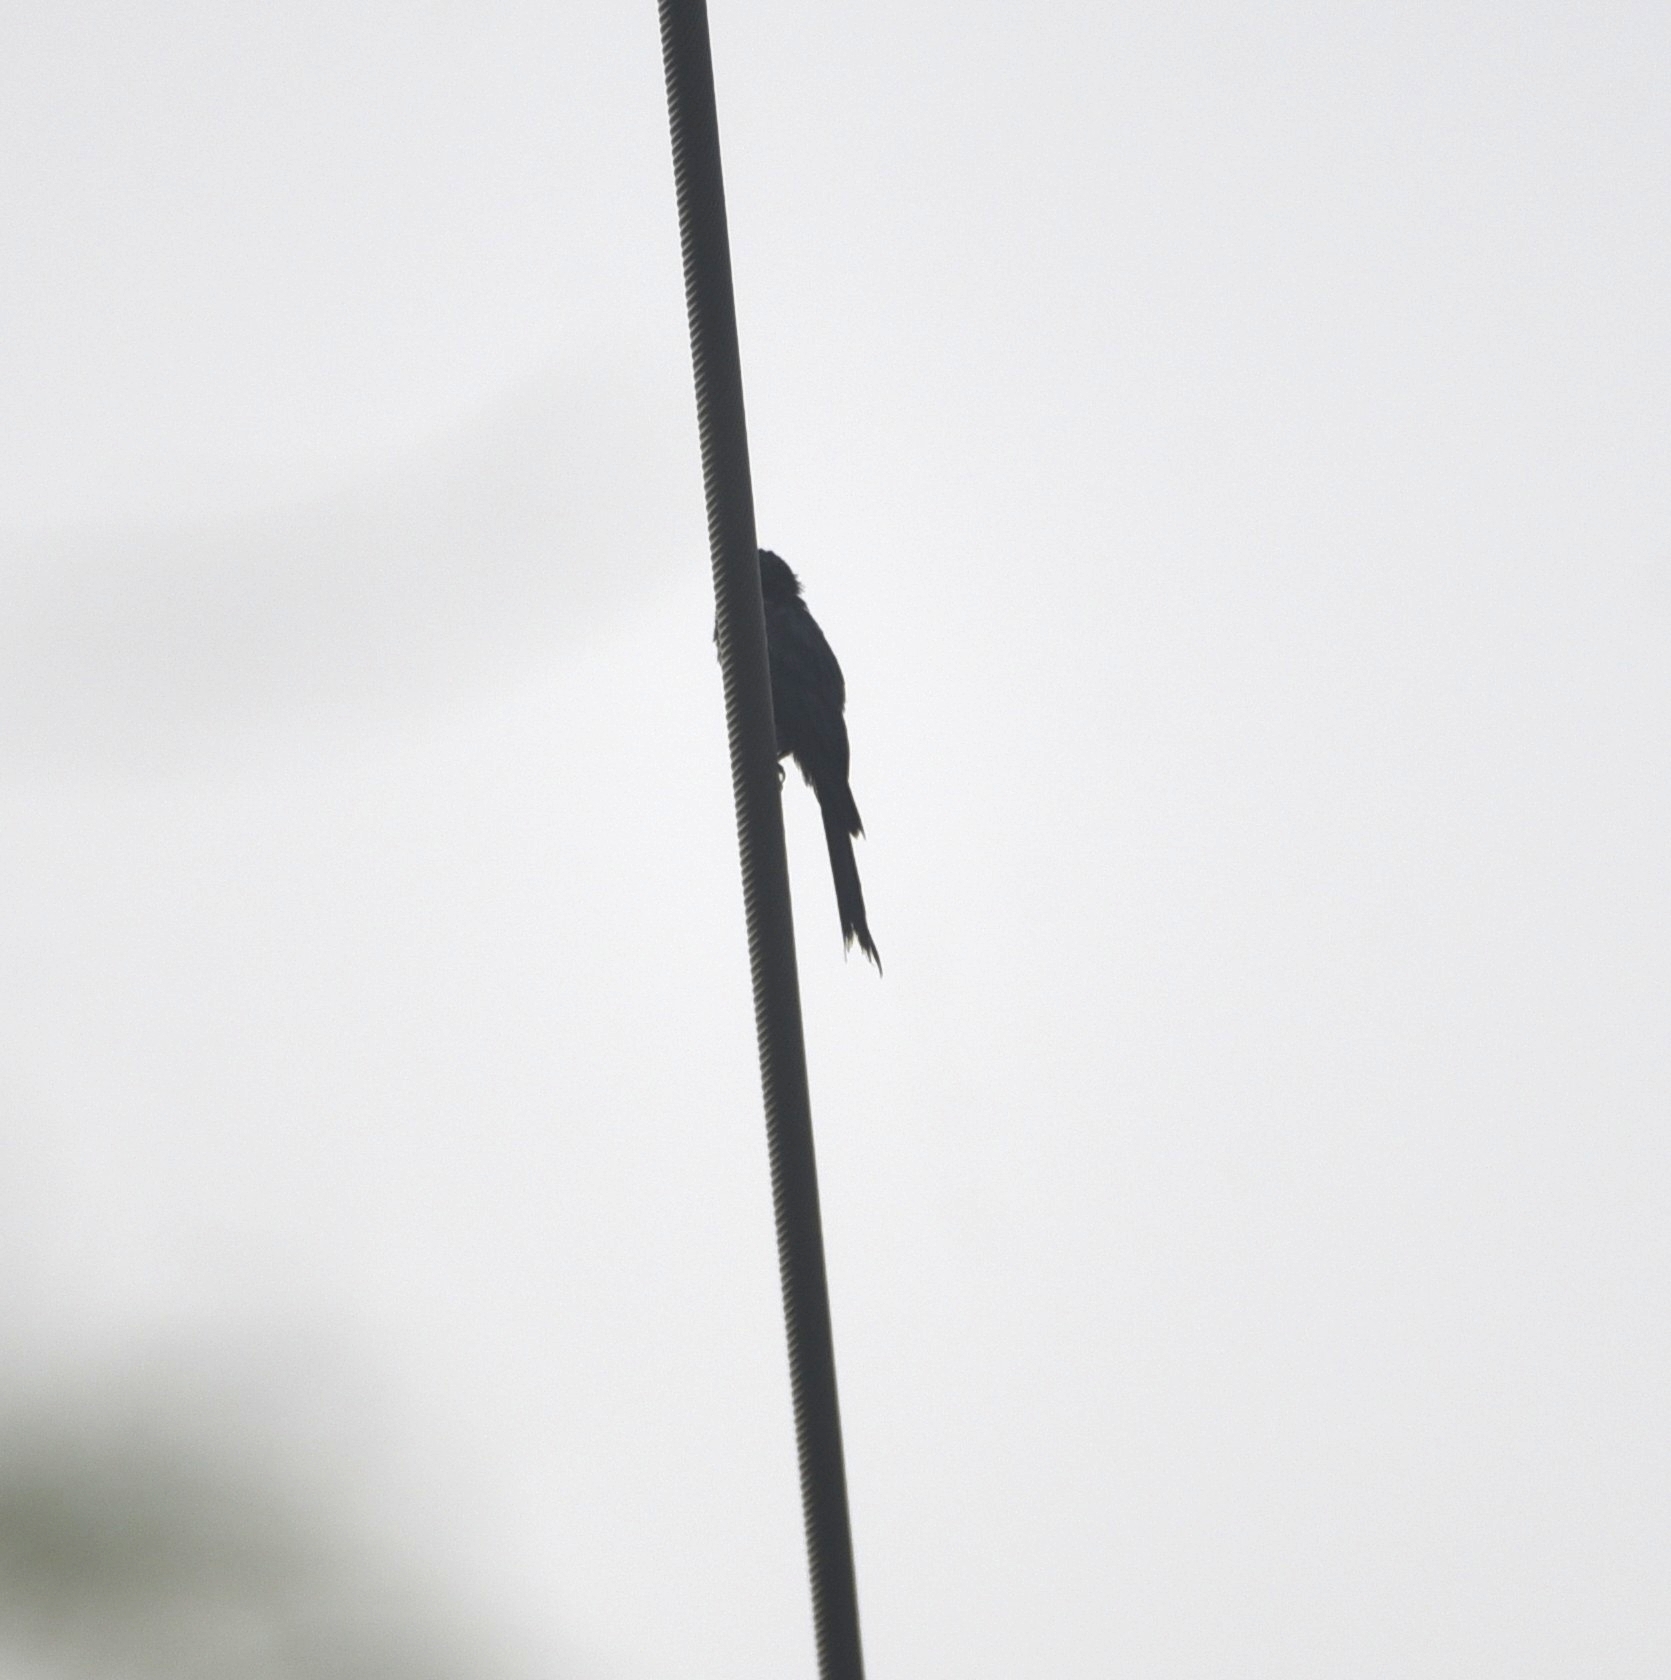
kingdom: Animalia
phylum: Chordata
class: Aves
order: Passeriformes
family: Dicruridae
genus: Dicrurus
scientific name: Dicrurus macrocercus
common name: Black drongo
